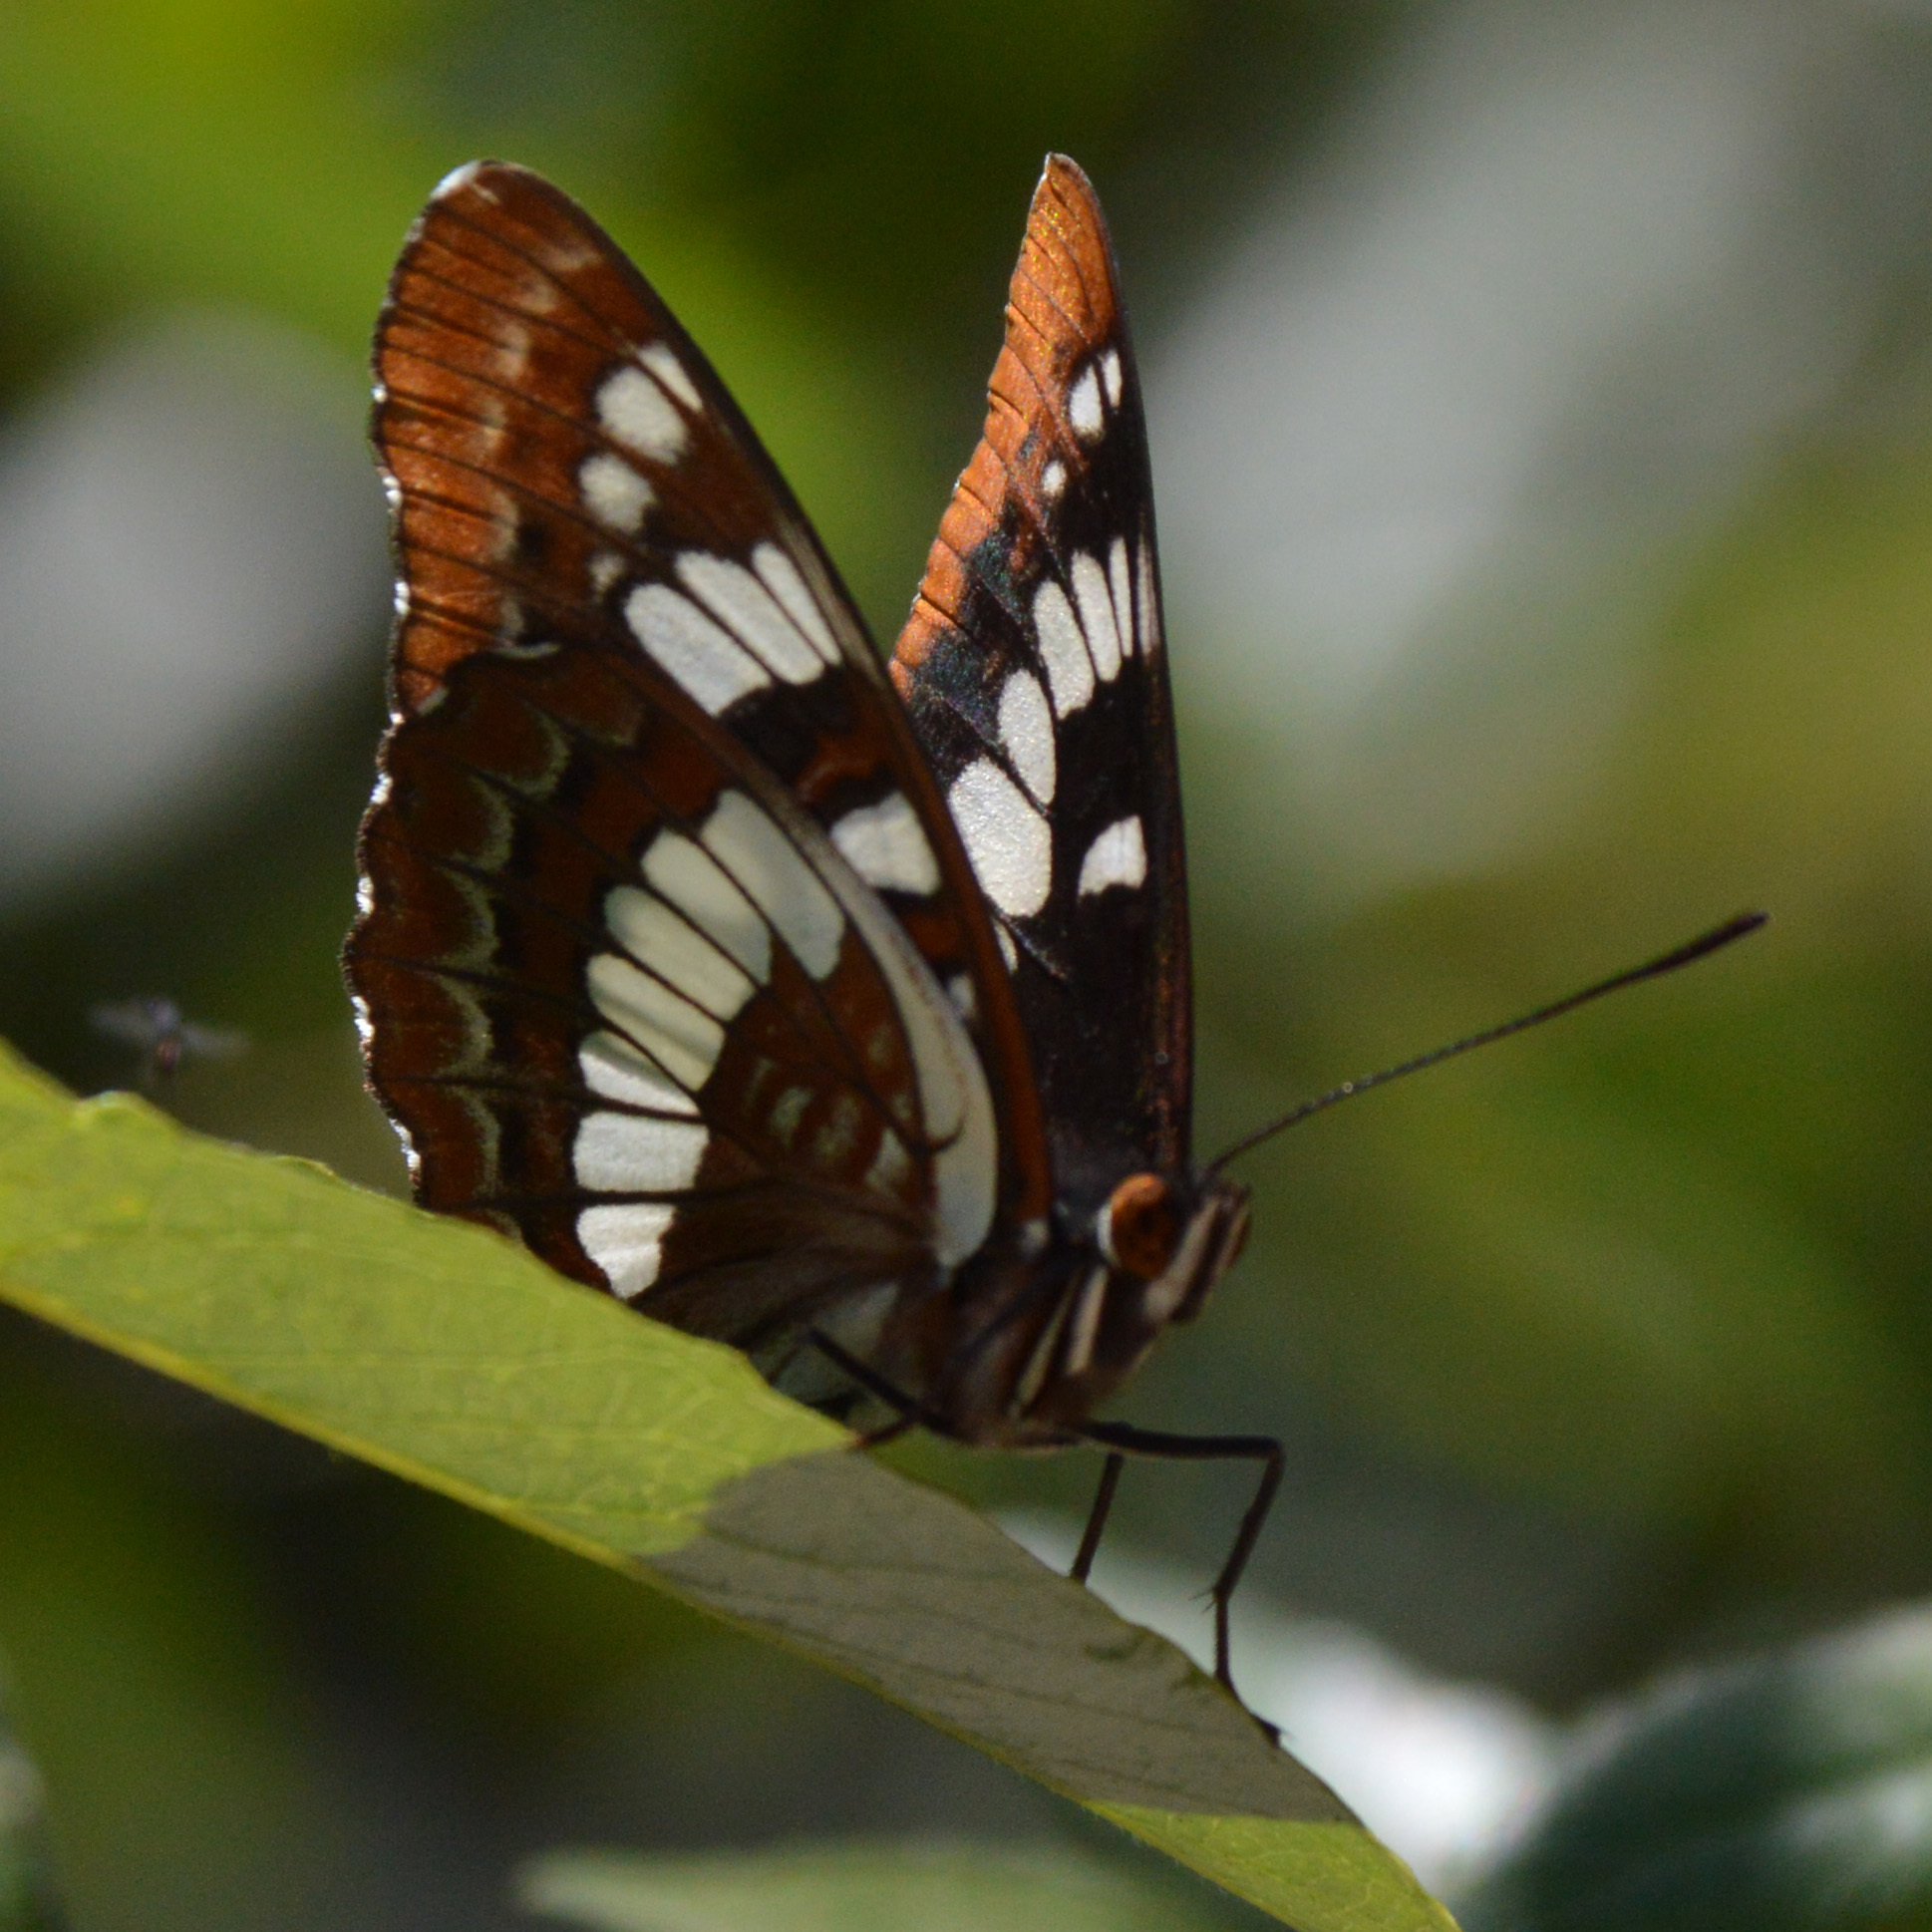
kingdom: Animalia
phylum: Arthropoda
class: Insecta
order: Lepidoptera
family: Nymphalidae
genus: Limenitis
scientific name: Limenitis lorquini
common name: Lorquin's admiral
